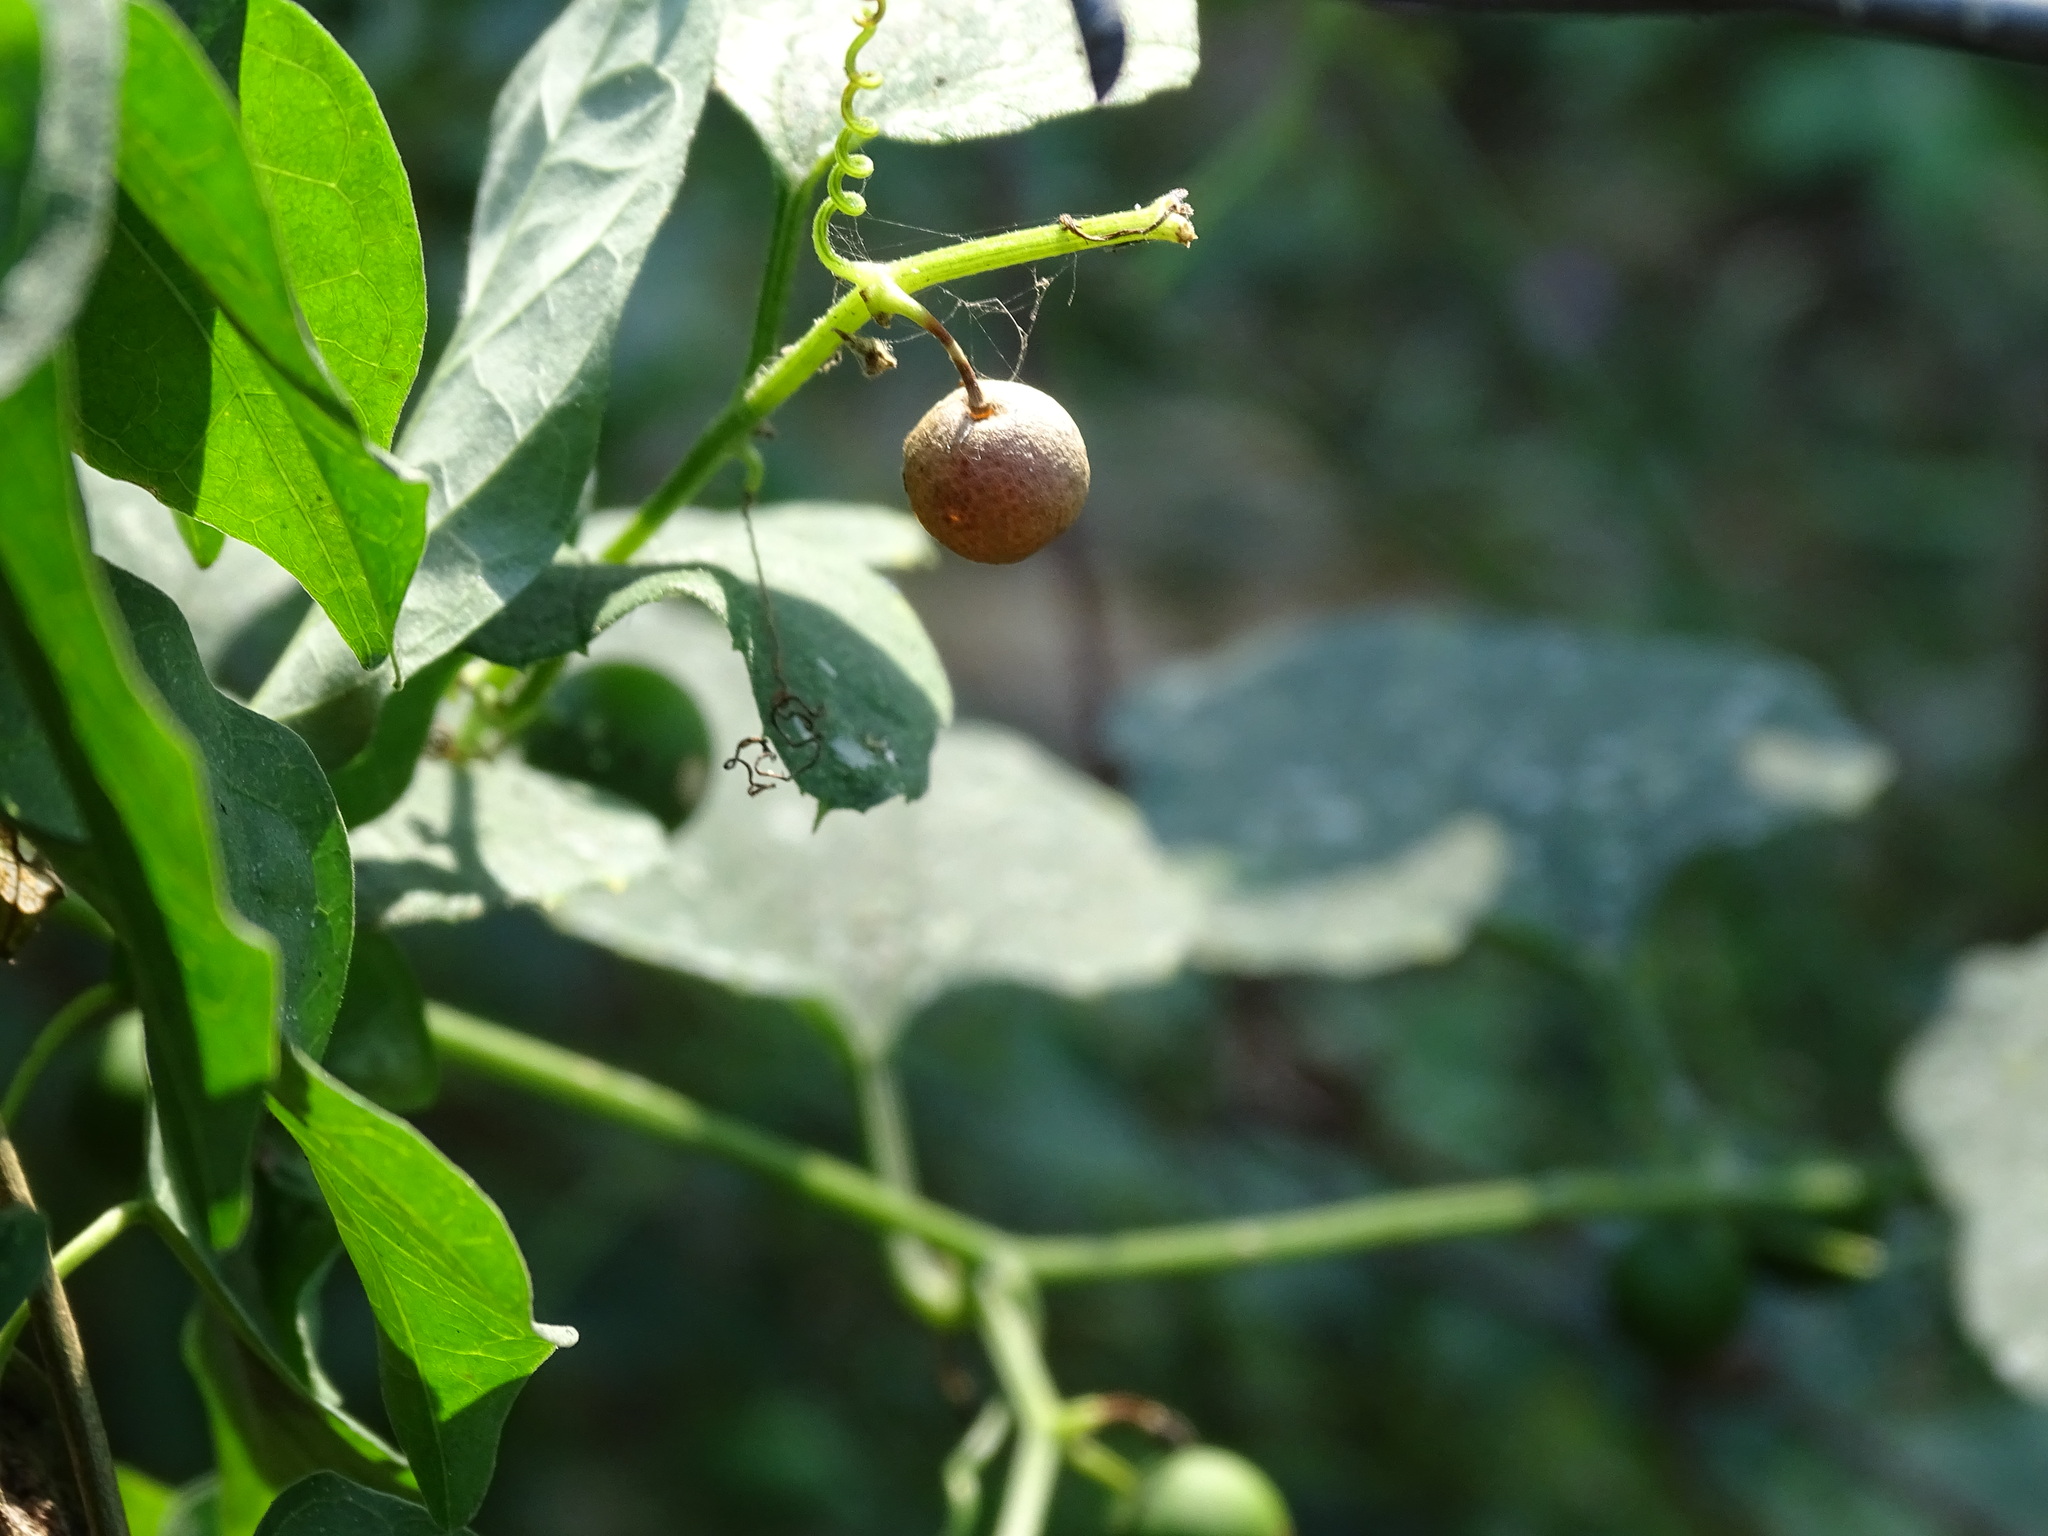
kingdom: Plantae
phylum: Tracheophyta
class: Magnoliopsida
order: Cucurbitales
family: Cucurbitaceae
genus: Cayaponia
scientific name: Cayaponia attenuata
